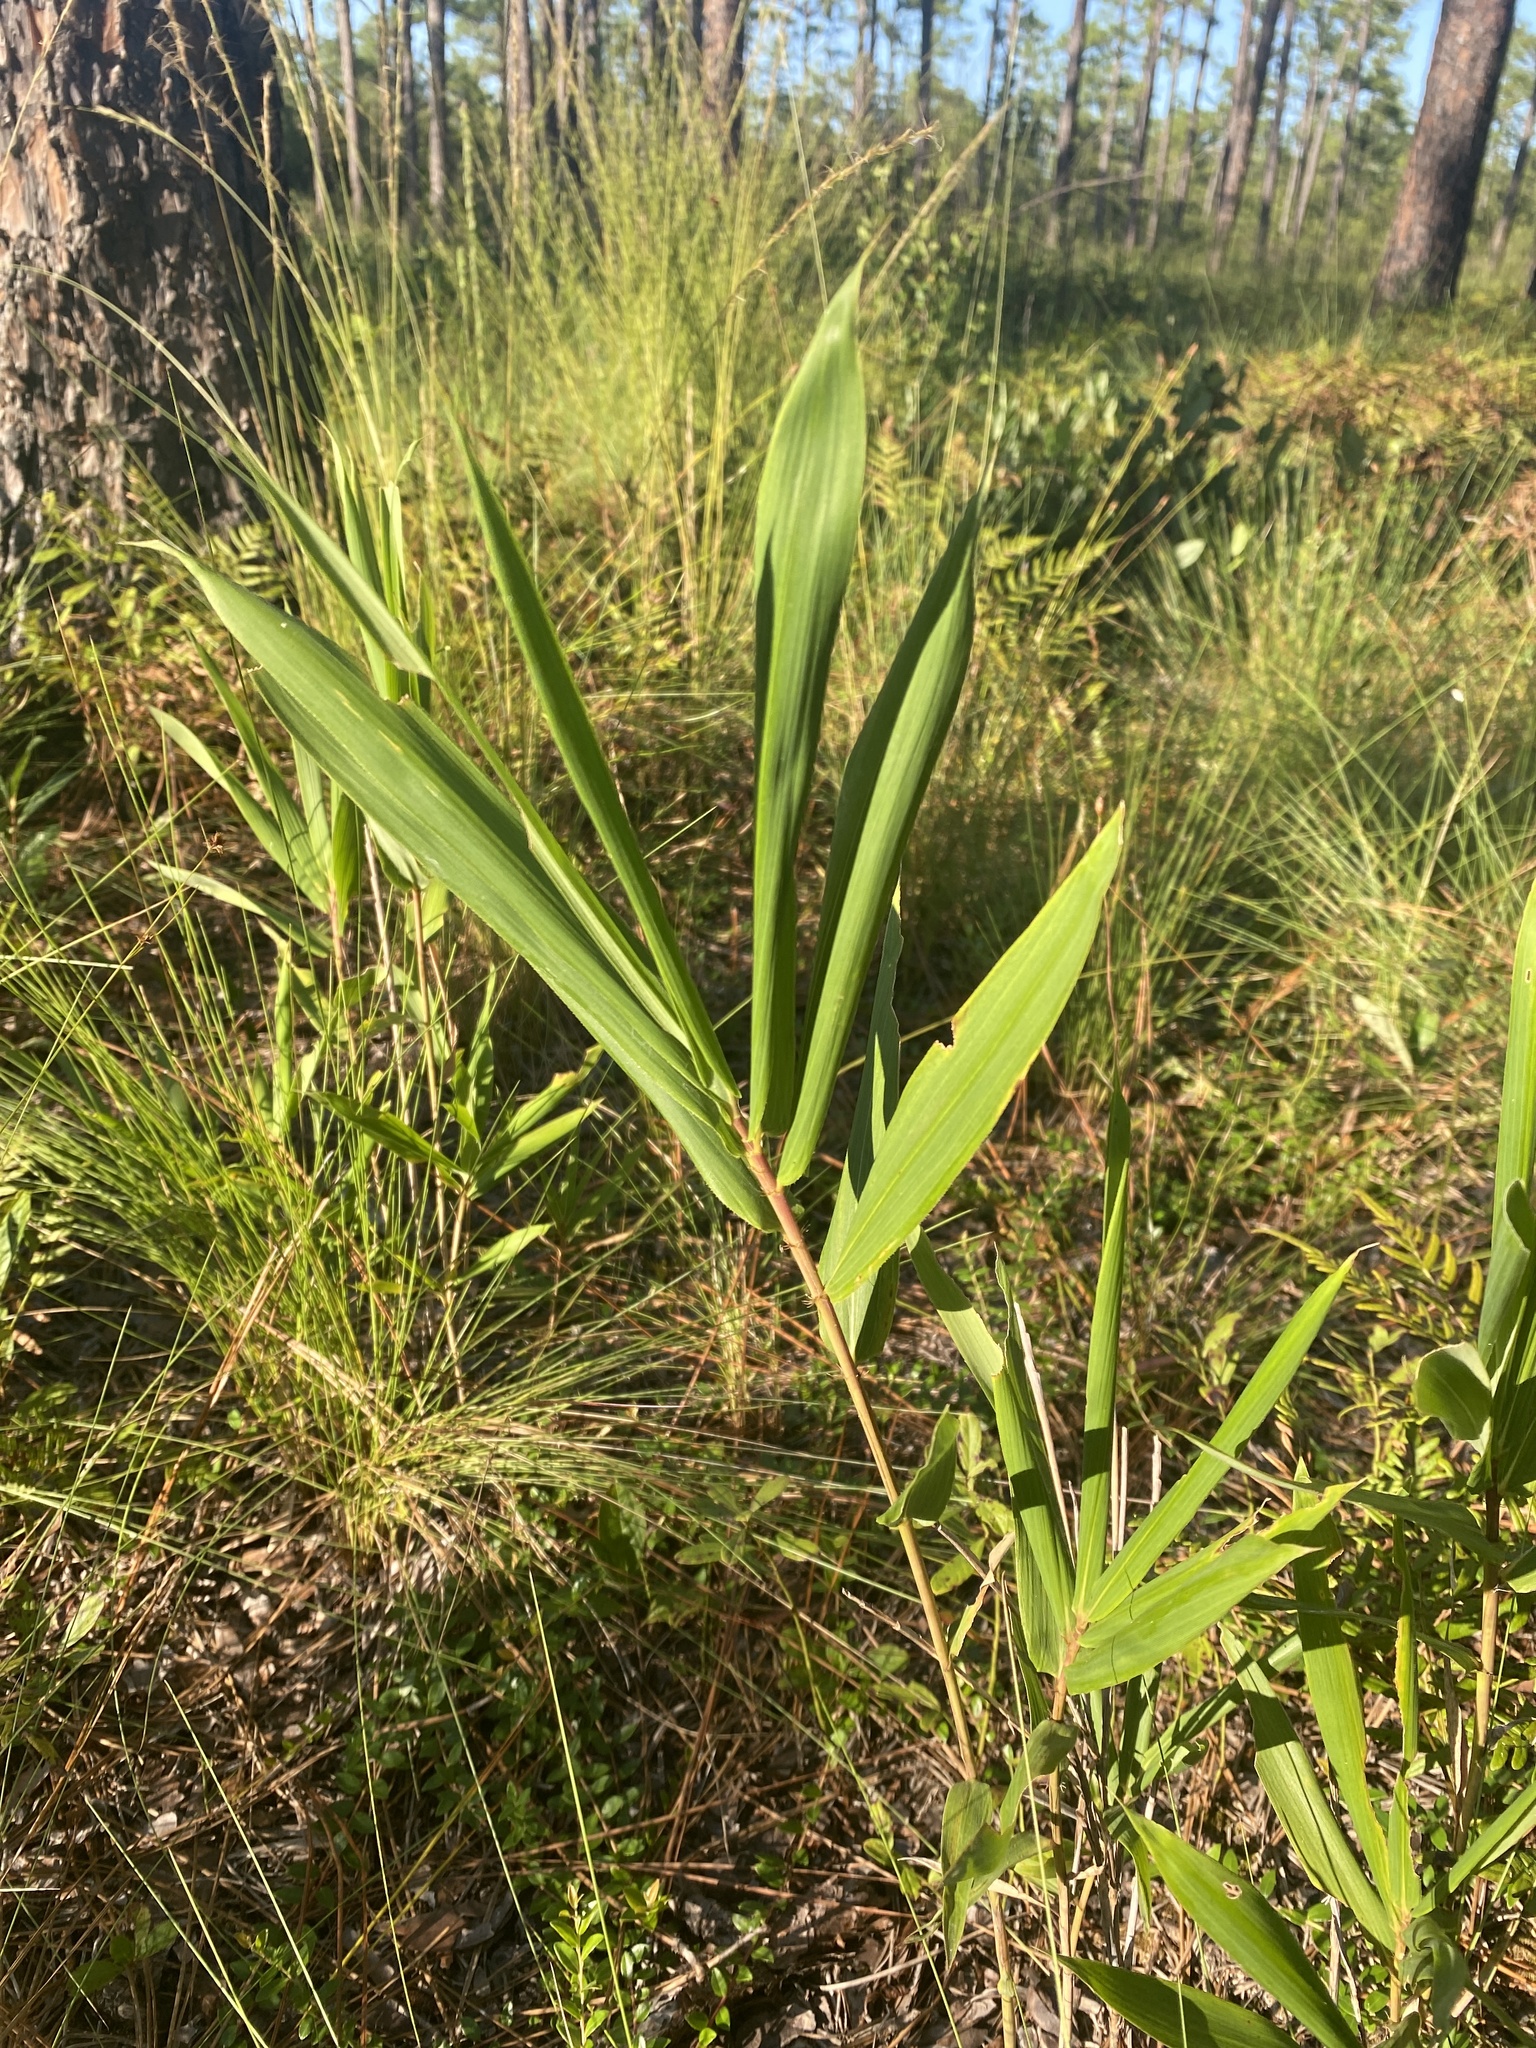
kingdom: Plantae
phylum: Tracheophyta
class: Liliopsida
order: Poales
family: Poaceae
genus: Arundinaria
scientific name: Arundinaria tecta
